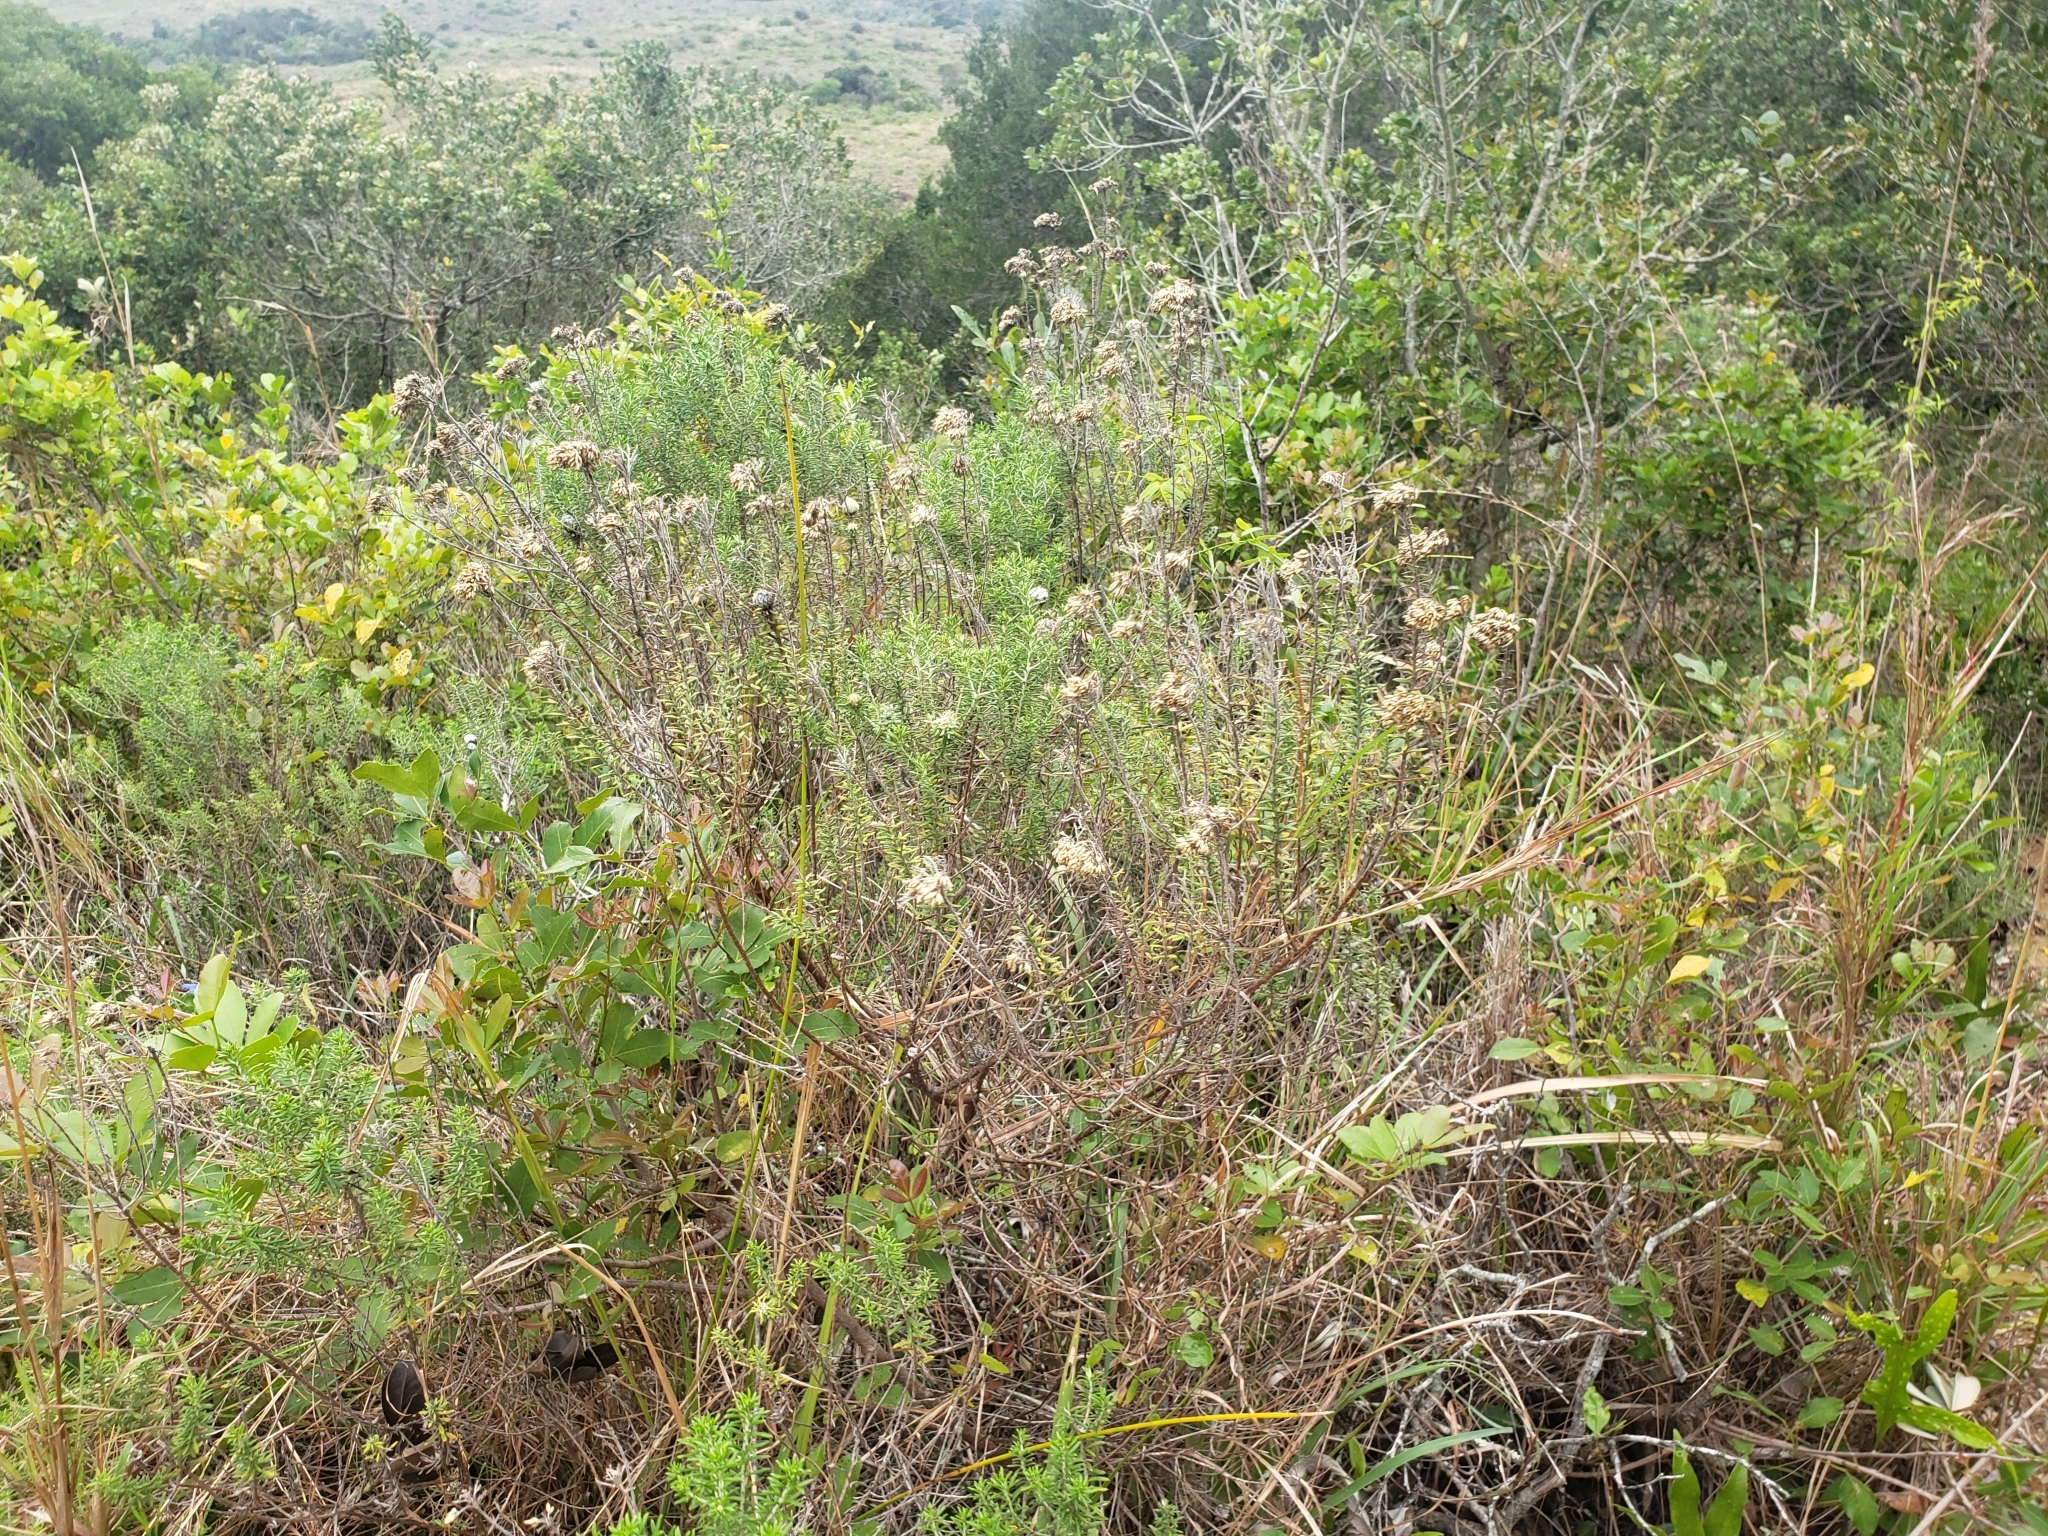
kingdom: Plantae
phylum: Tracheophyta
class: Magnoliopsida
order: Asterales
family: Asteraceae
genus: Helichrysum
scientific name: Helichrysum kraussii
